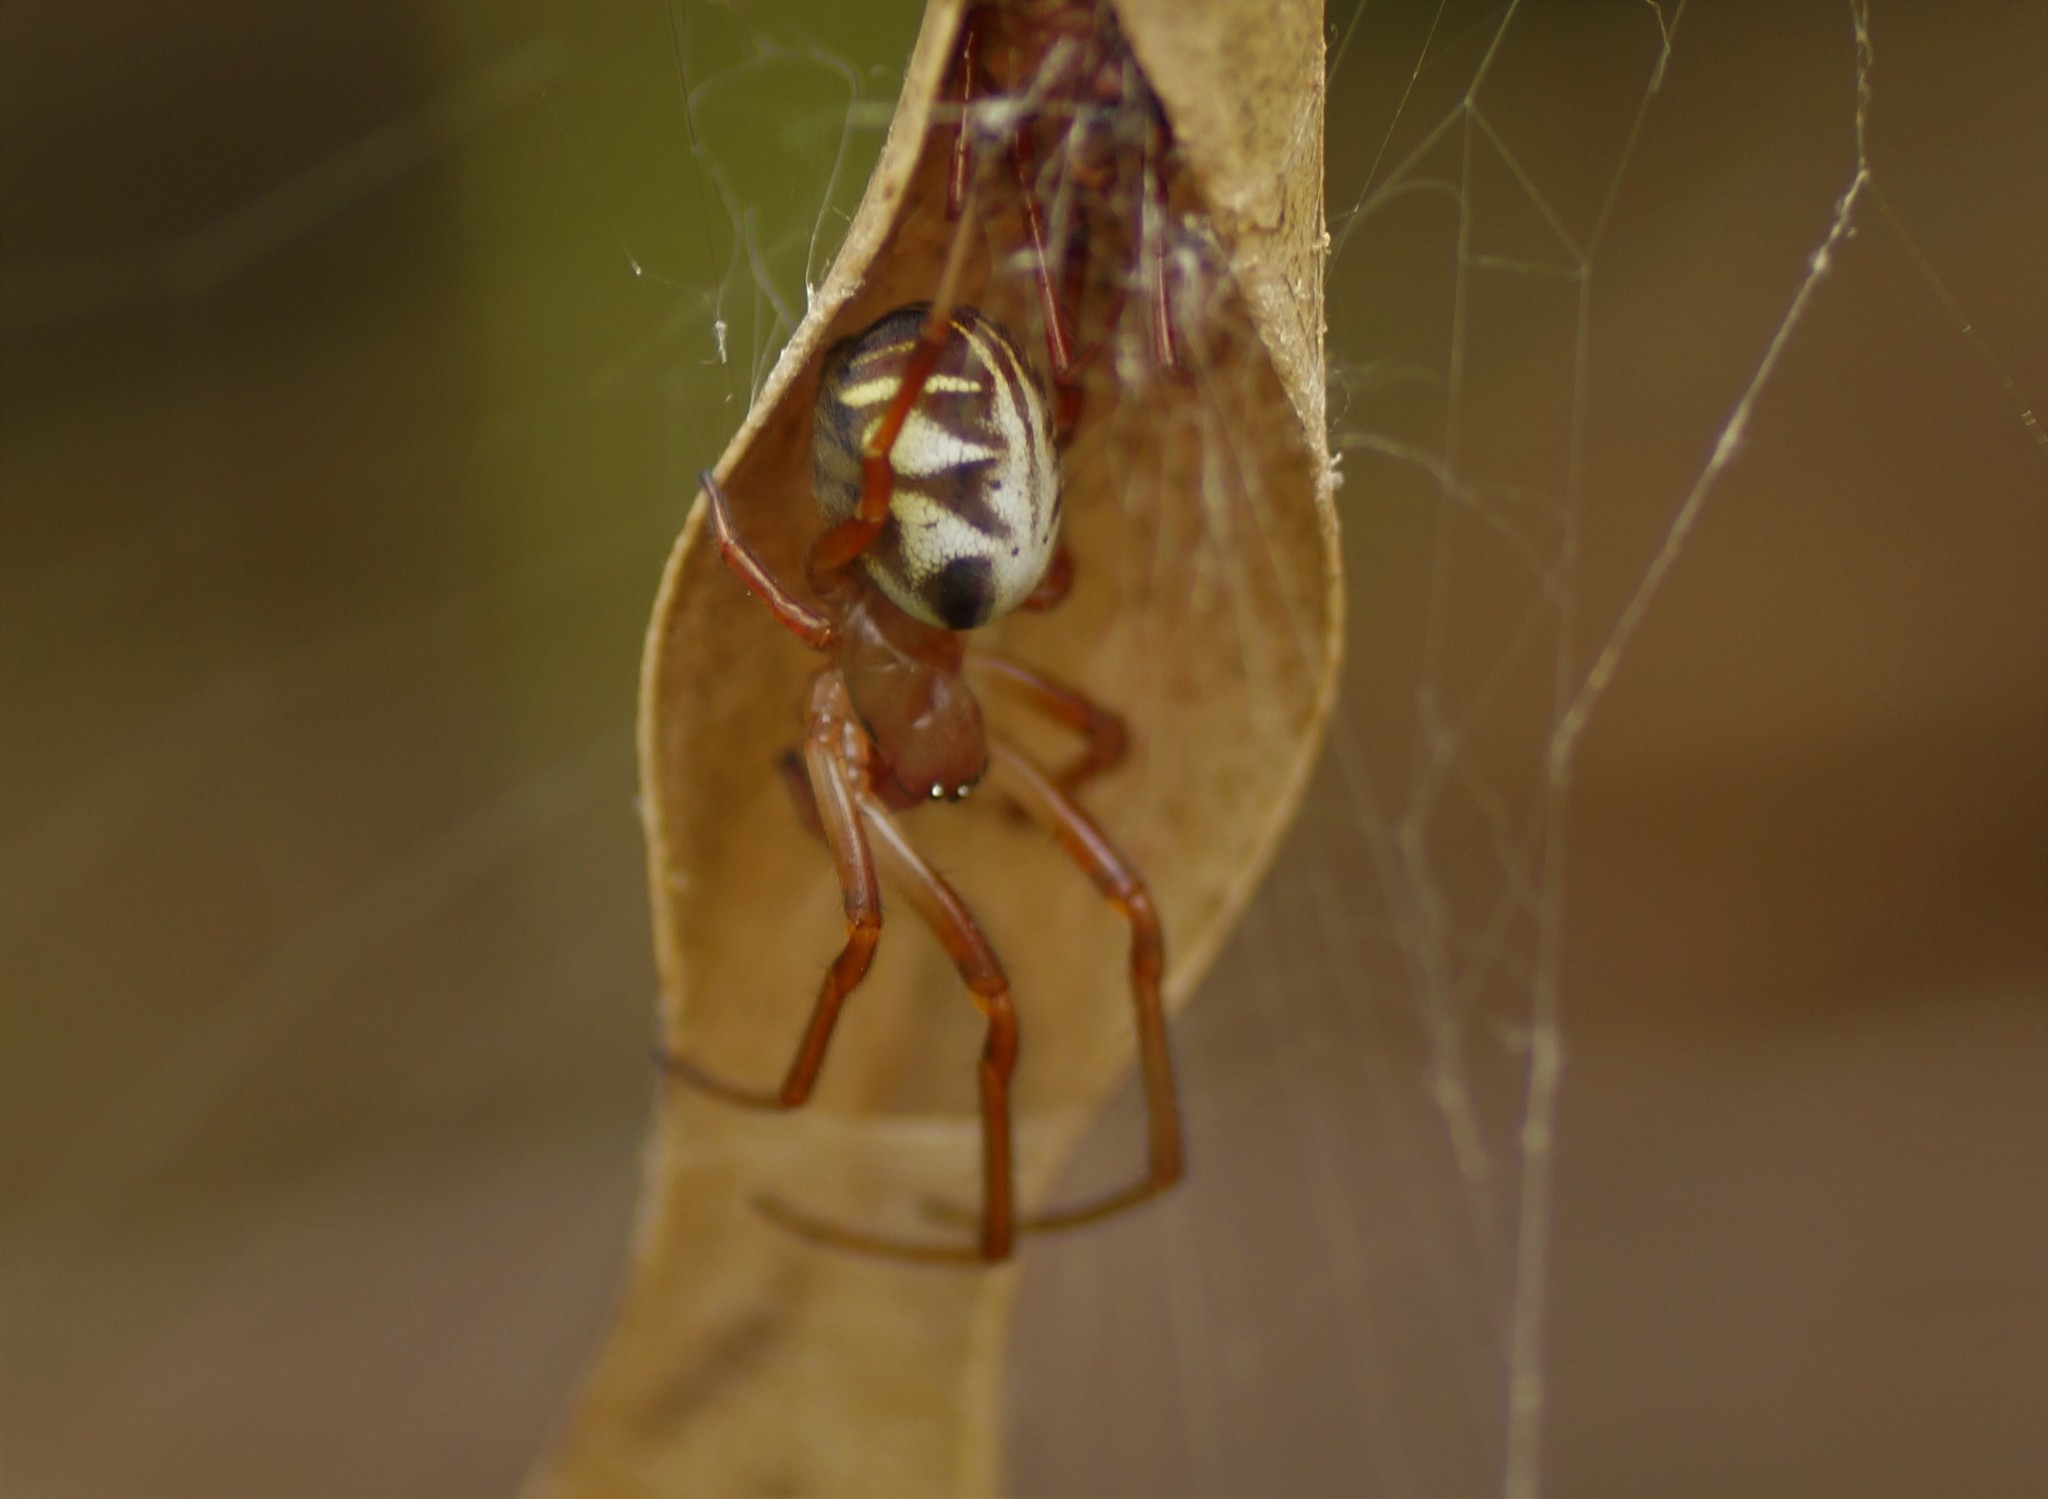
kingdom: Animalia
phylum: Arthropoda
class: Arachnida
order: Araneae
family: Araneidae
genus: Phonognatha
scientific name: Phonognatha graeffei
